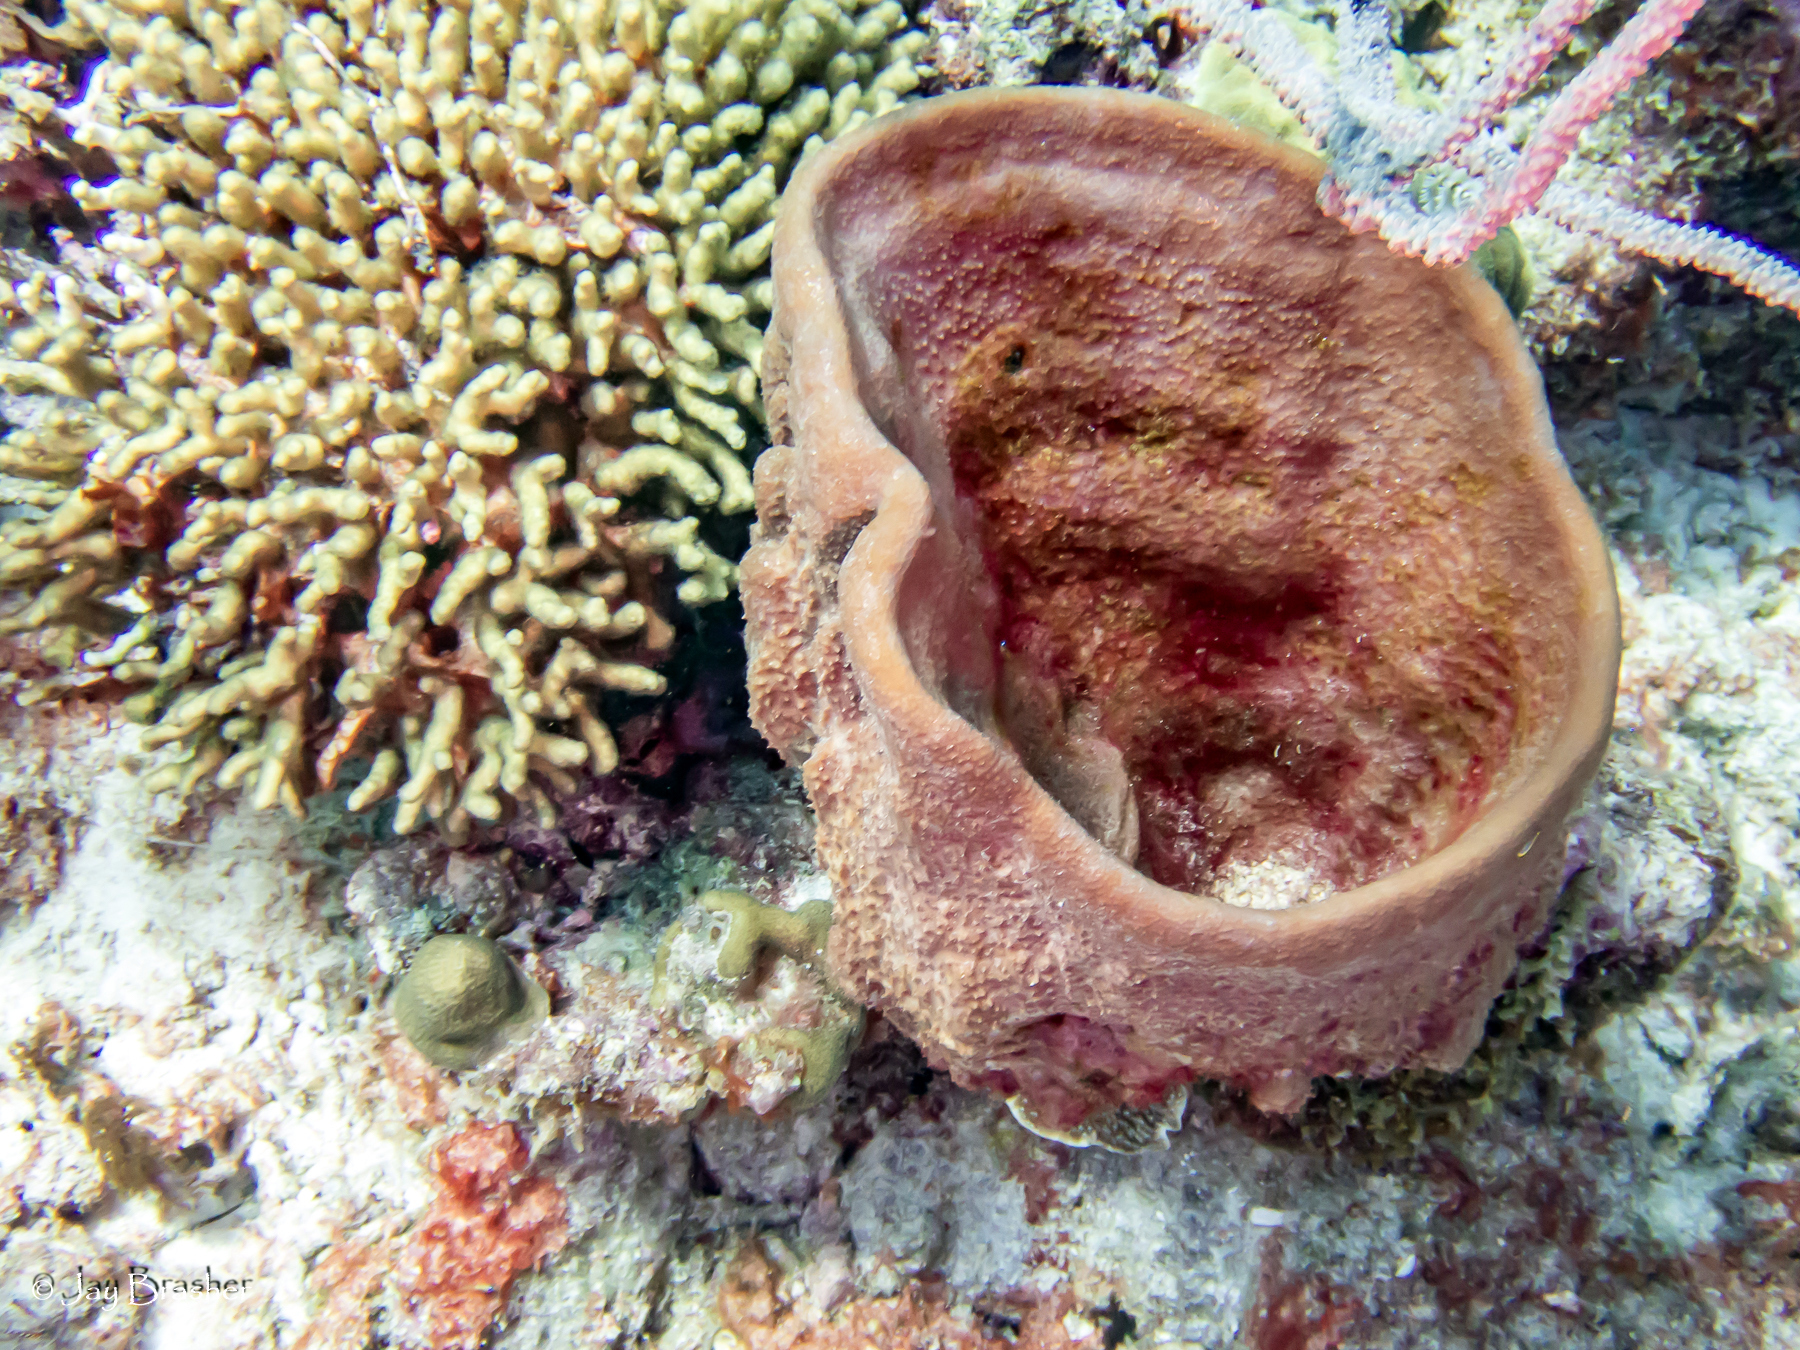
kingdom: Animalia
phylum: Porifera
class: Demospongiae
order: Dictyoceratida
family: Irciniidae
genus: Ircinia
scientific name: Ircinia campana
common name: Vase sponge
